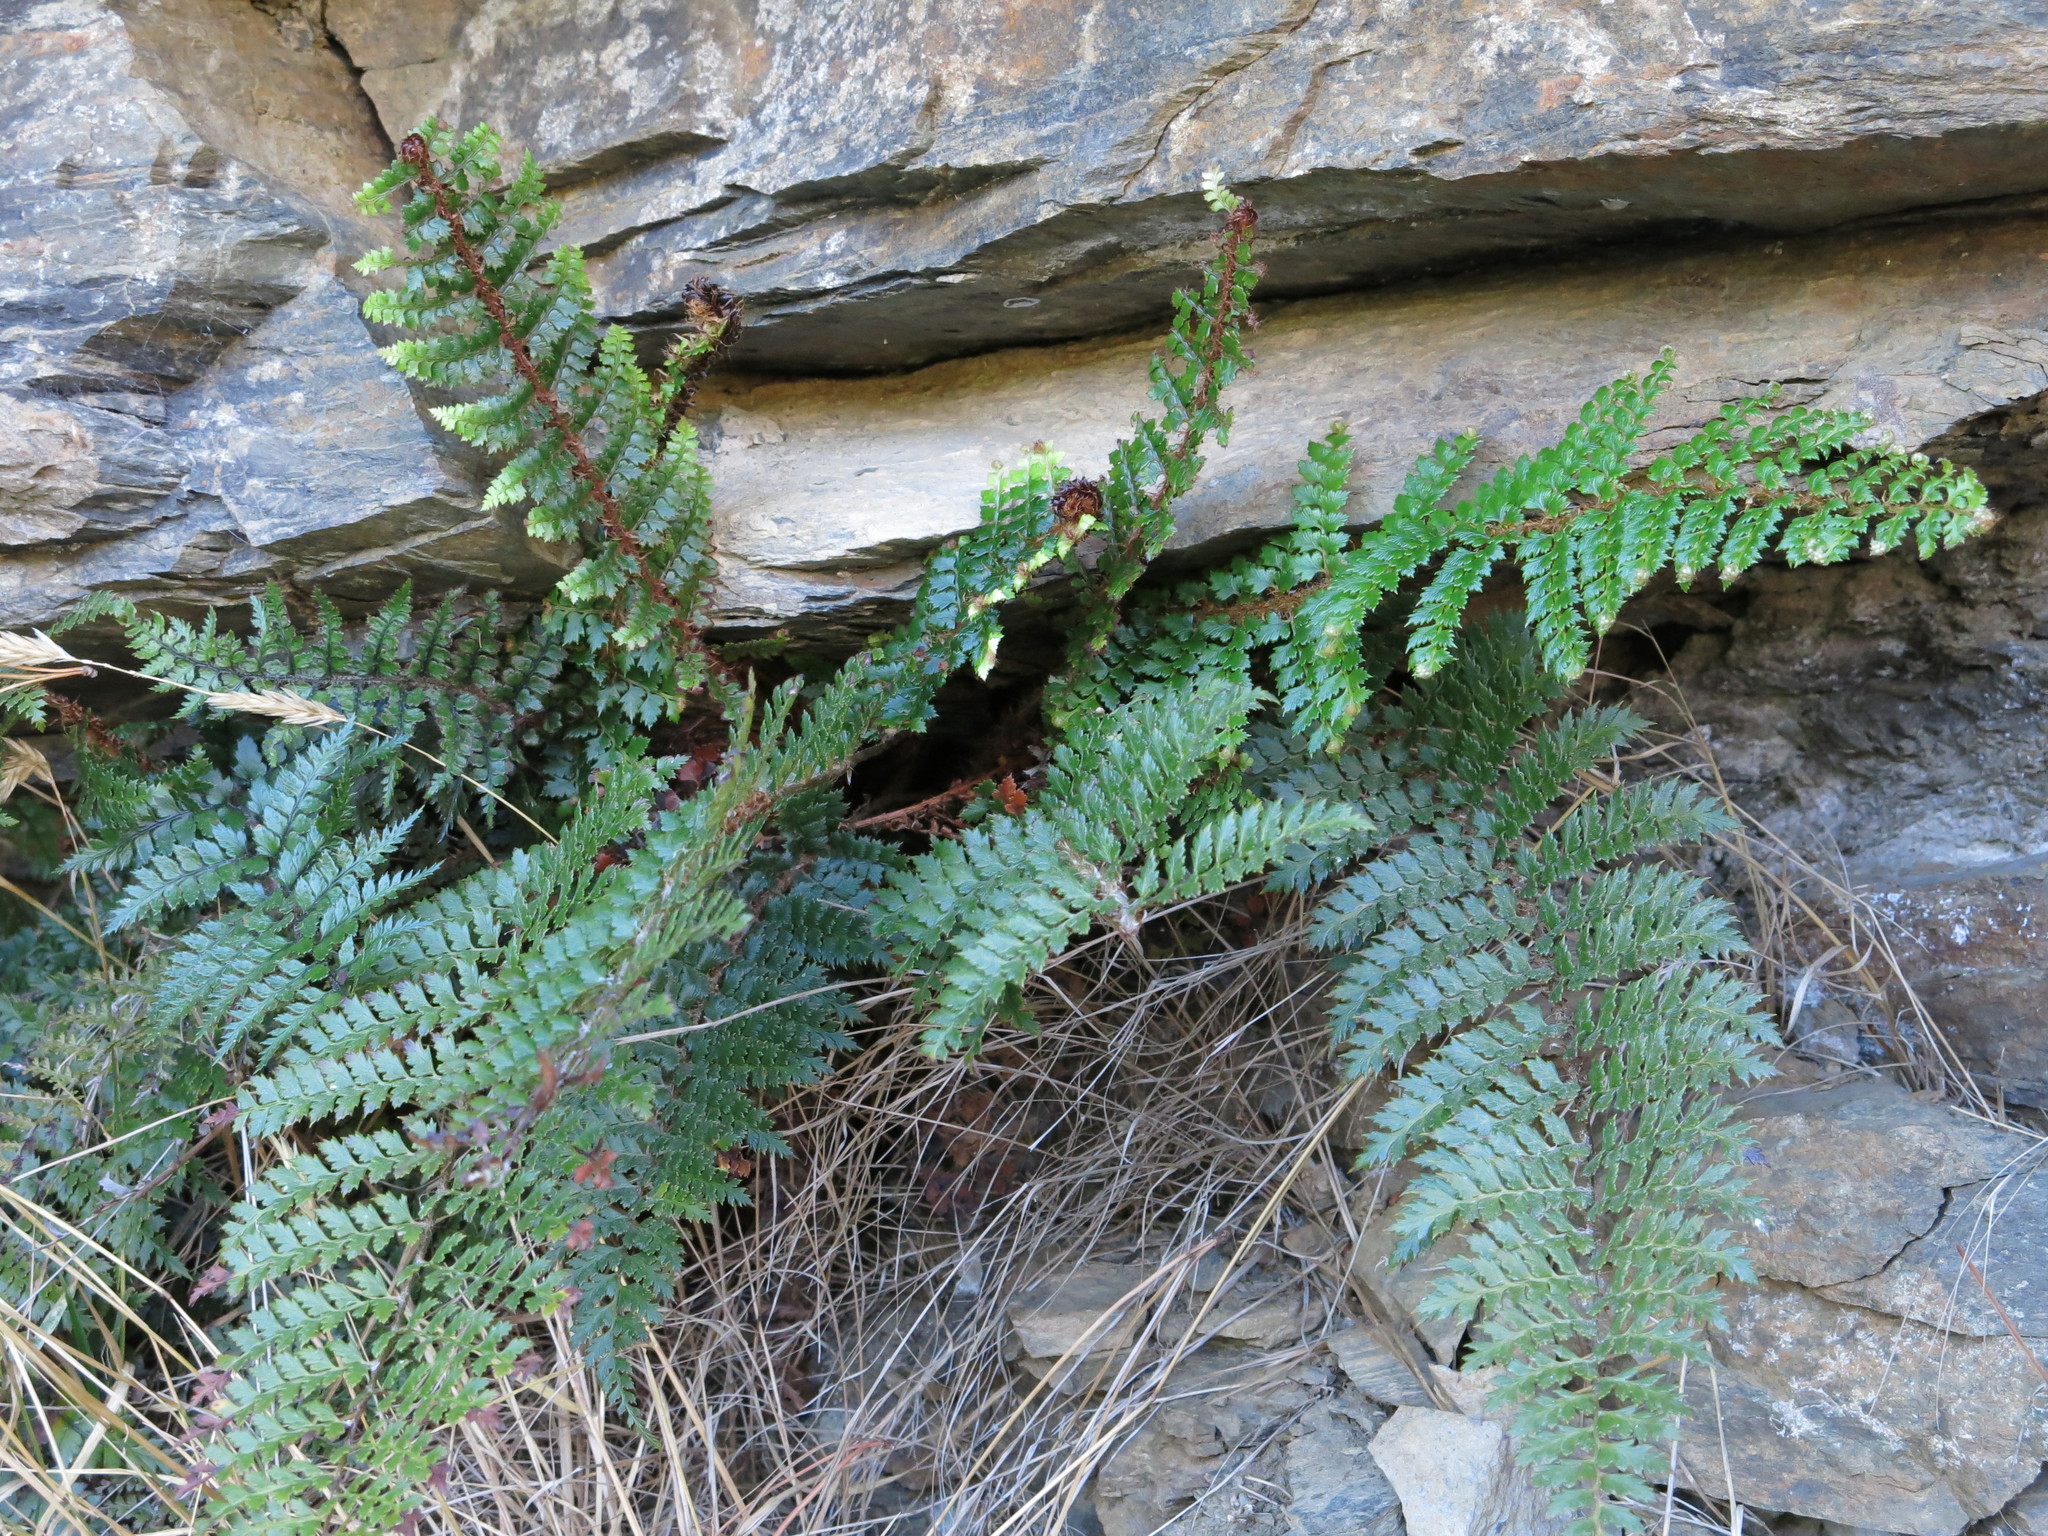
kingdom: Plantae
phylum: Tracheophyta
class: Polypodiopsida
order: Polypodiales
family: Dryopteridaceae
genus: Polystichum
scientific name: Polystichum neozelandicum
